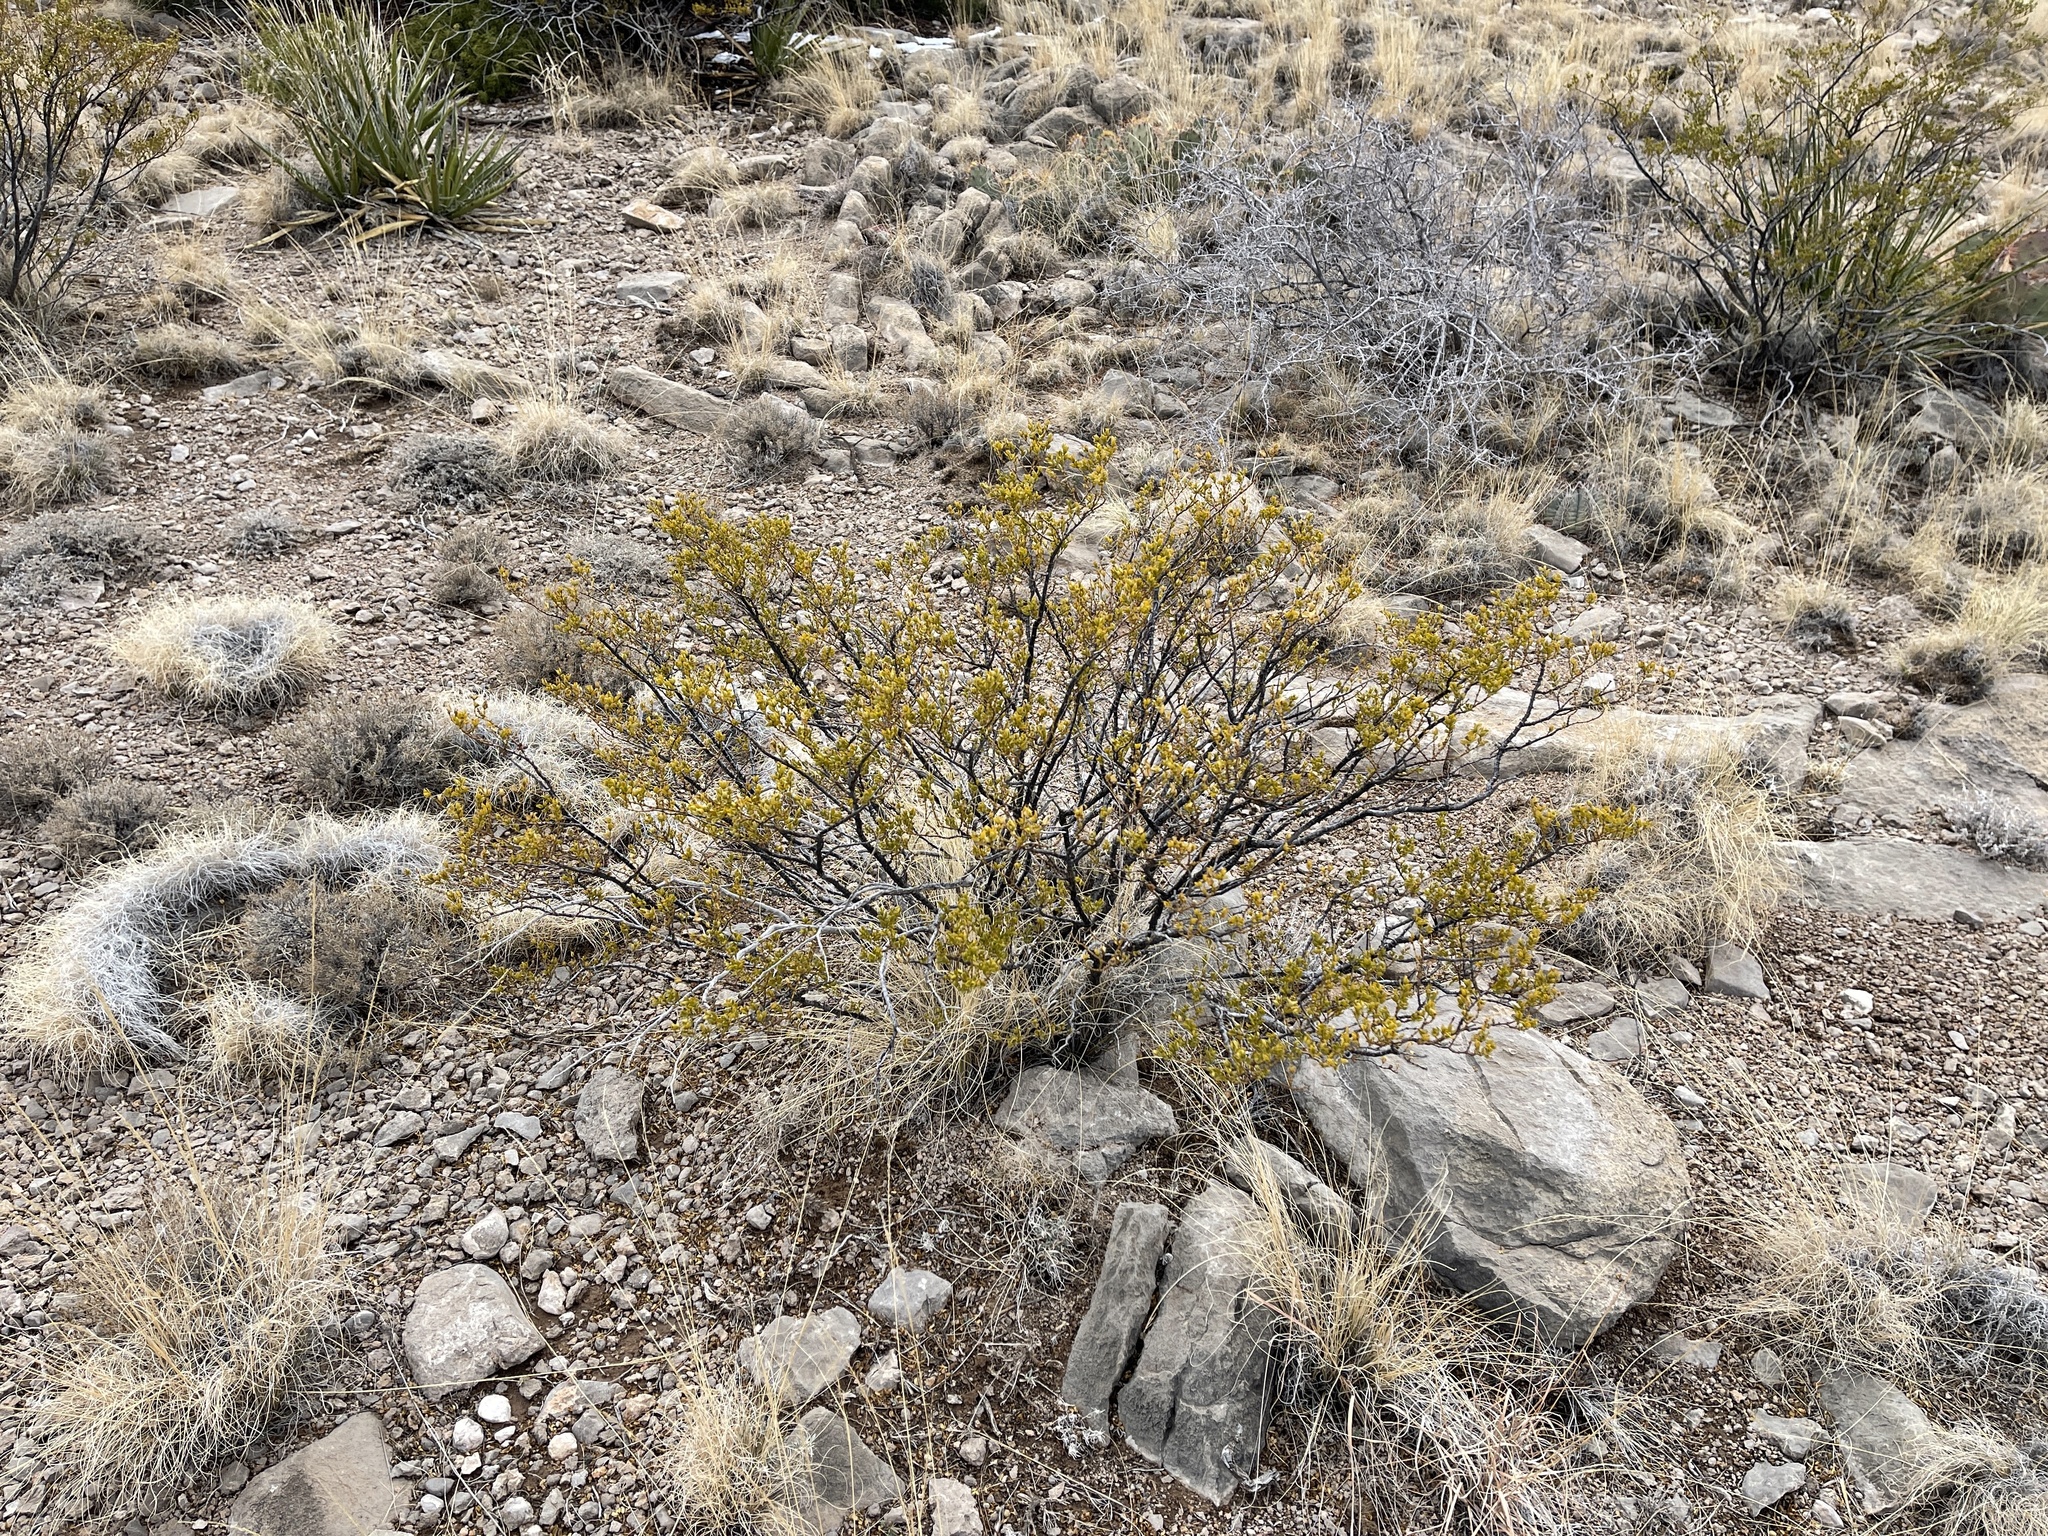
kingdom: Plantae
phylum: Tracheophyta
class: Magnoliopsida
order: Zygophyllales
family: Zygophyllaceae
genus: Larrea
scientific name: Larrea tridentata
